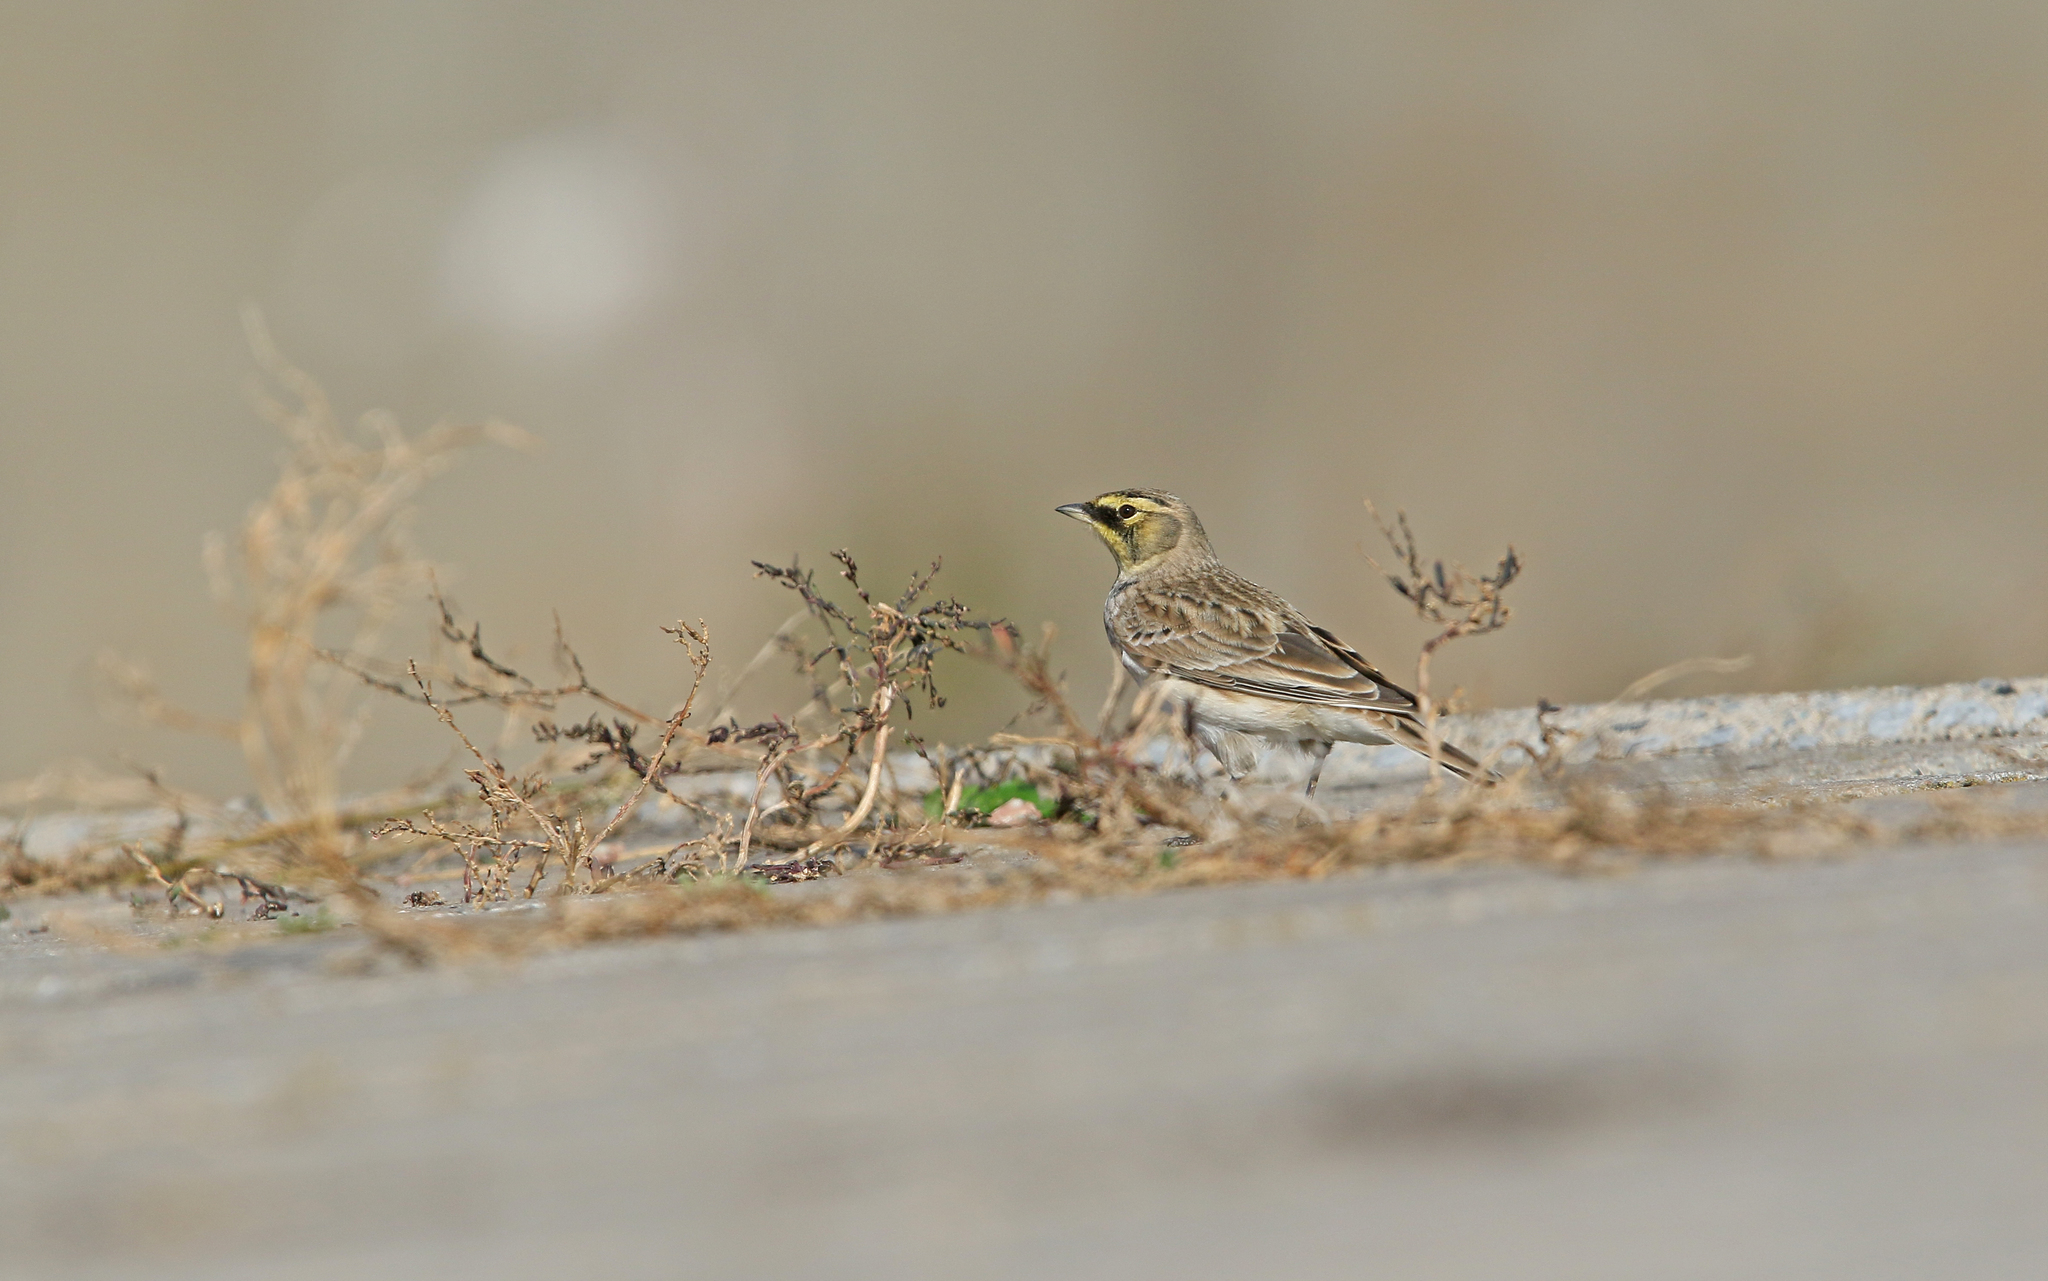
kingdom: Animalia
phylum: Chordata
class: Aves
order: Passeriformes
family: Alaudidae
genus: Eremophila
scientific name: Eremophila alpestris
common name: Horned lark
